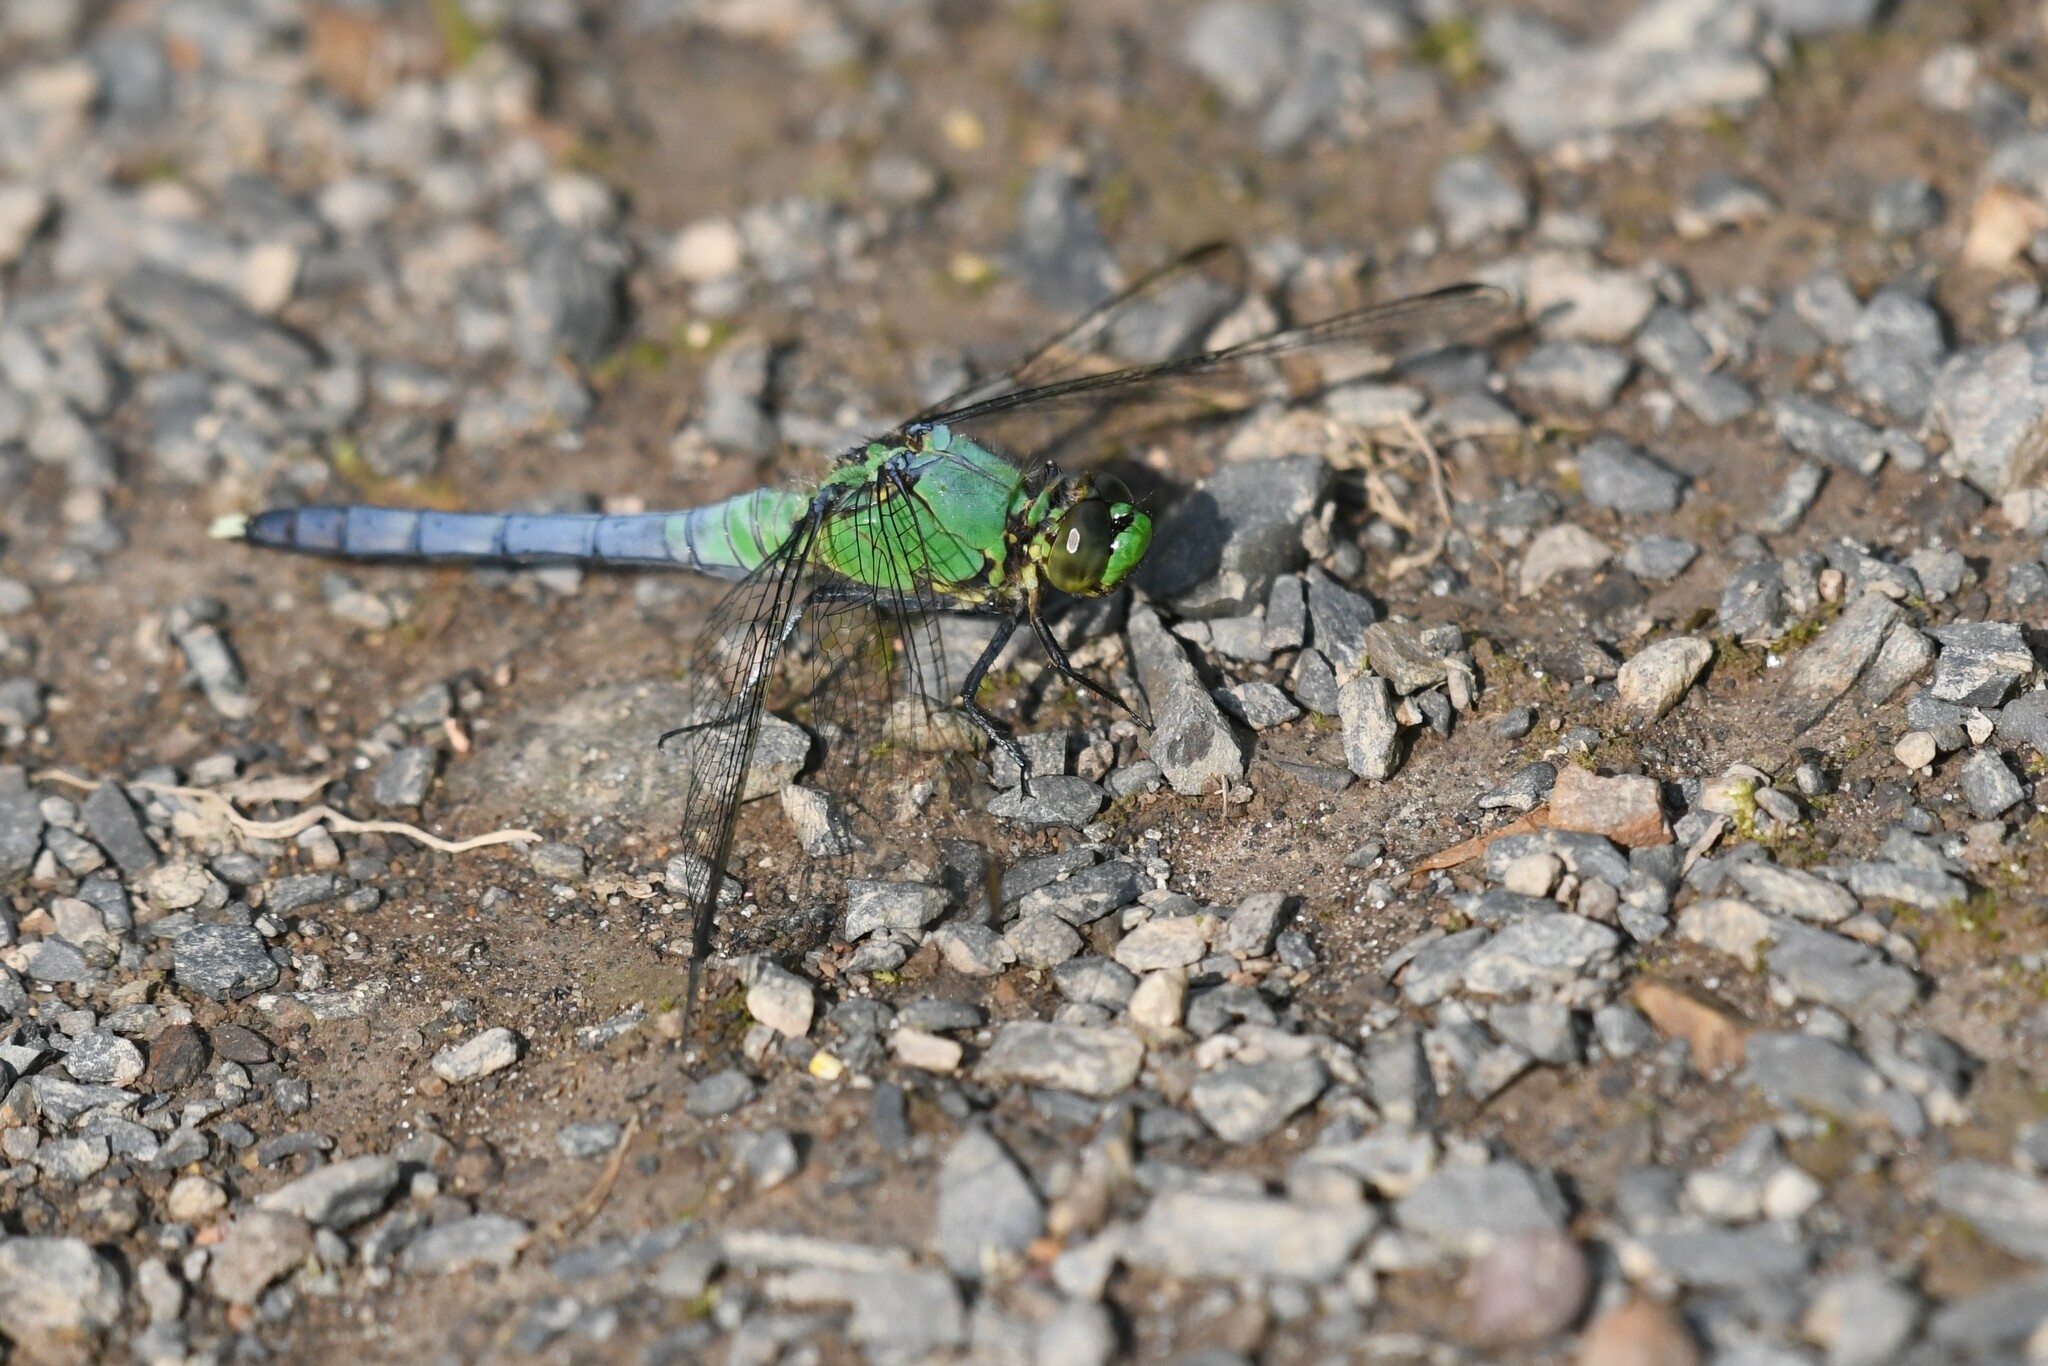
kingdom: Animalia
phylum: Arthropoda
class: Insecta
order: Odonata
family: Libellulidae
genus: Erythemis
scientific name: Erythemis simplicicollis
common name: Eastern pondhawk
